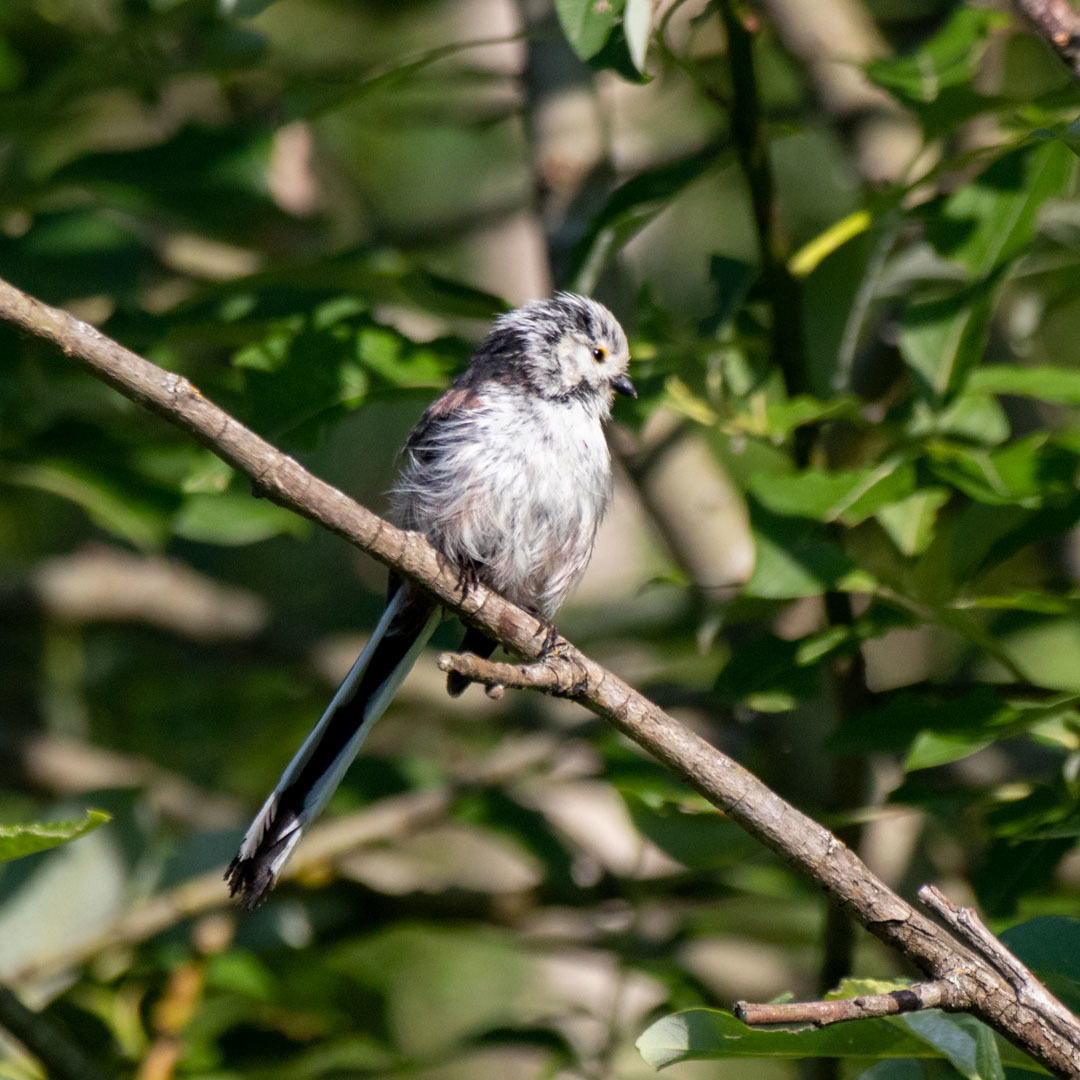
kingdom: Animalia
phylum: Chordata
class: Aves
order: Passeriformes
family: Aegithalidae
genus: Aegithalos
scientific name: Aegithalos caudatus
